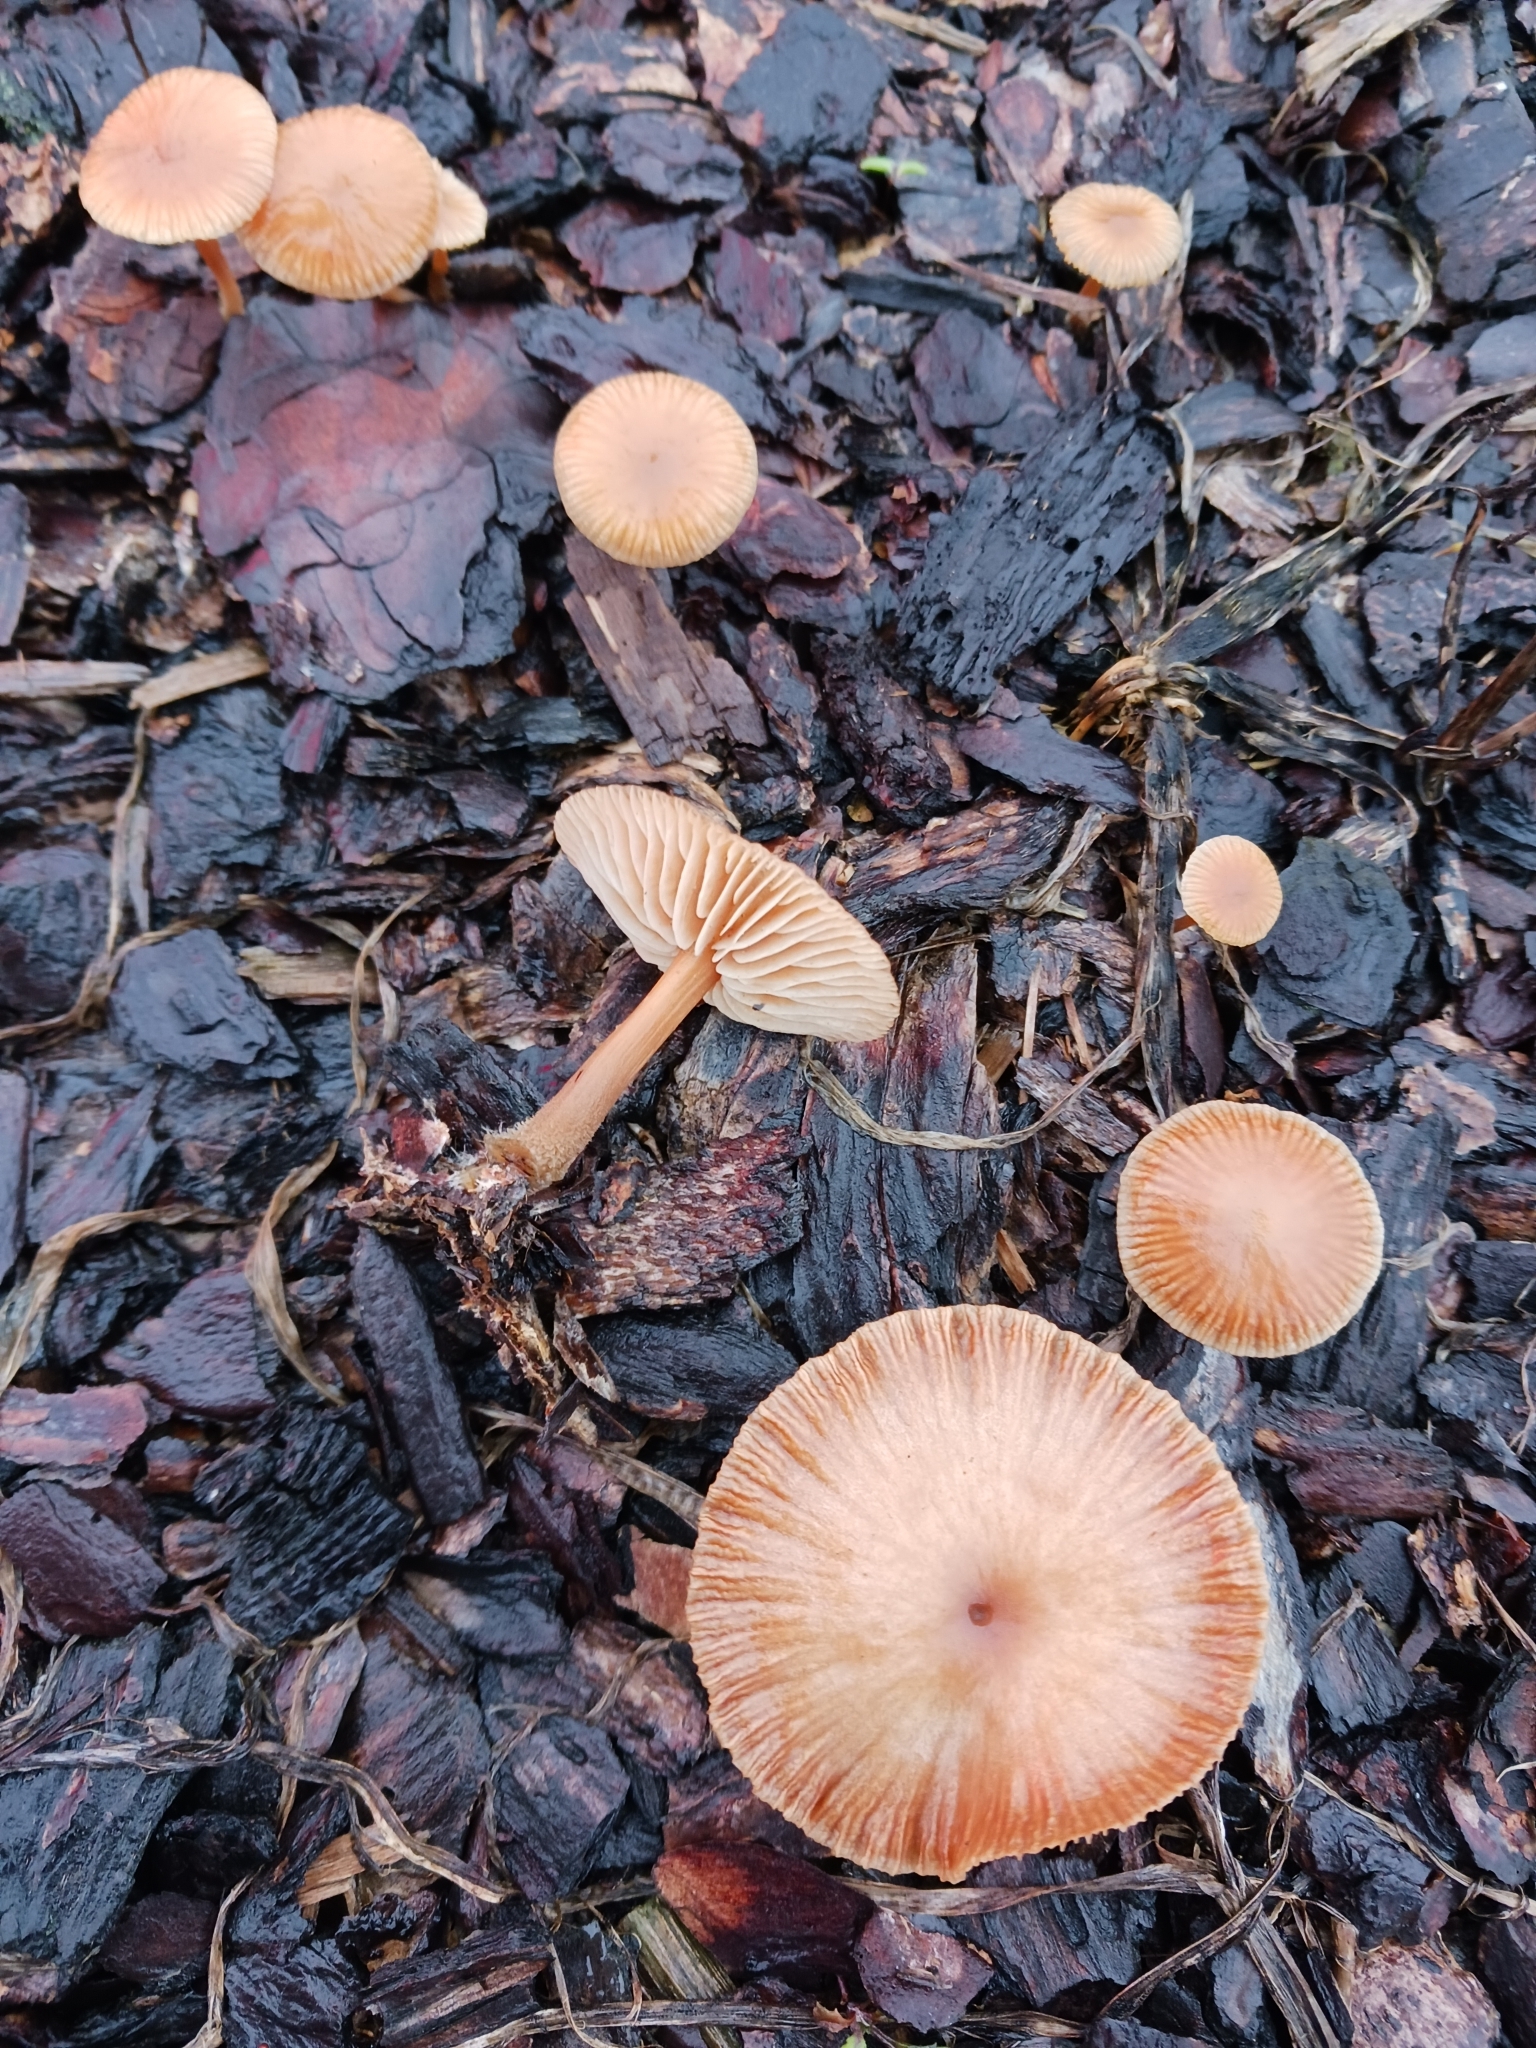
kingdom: Fungi
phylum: Basidiomycota
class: Agaricomycetes
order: Agaricales
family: Tubariaceae
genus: Tubaria
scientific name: Tubaria furfuracea
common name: Scurfy twiglet
